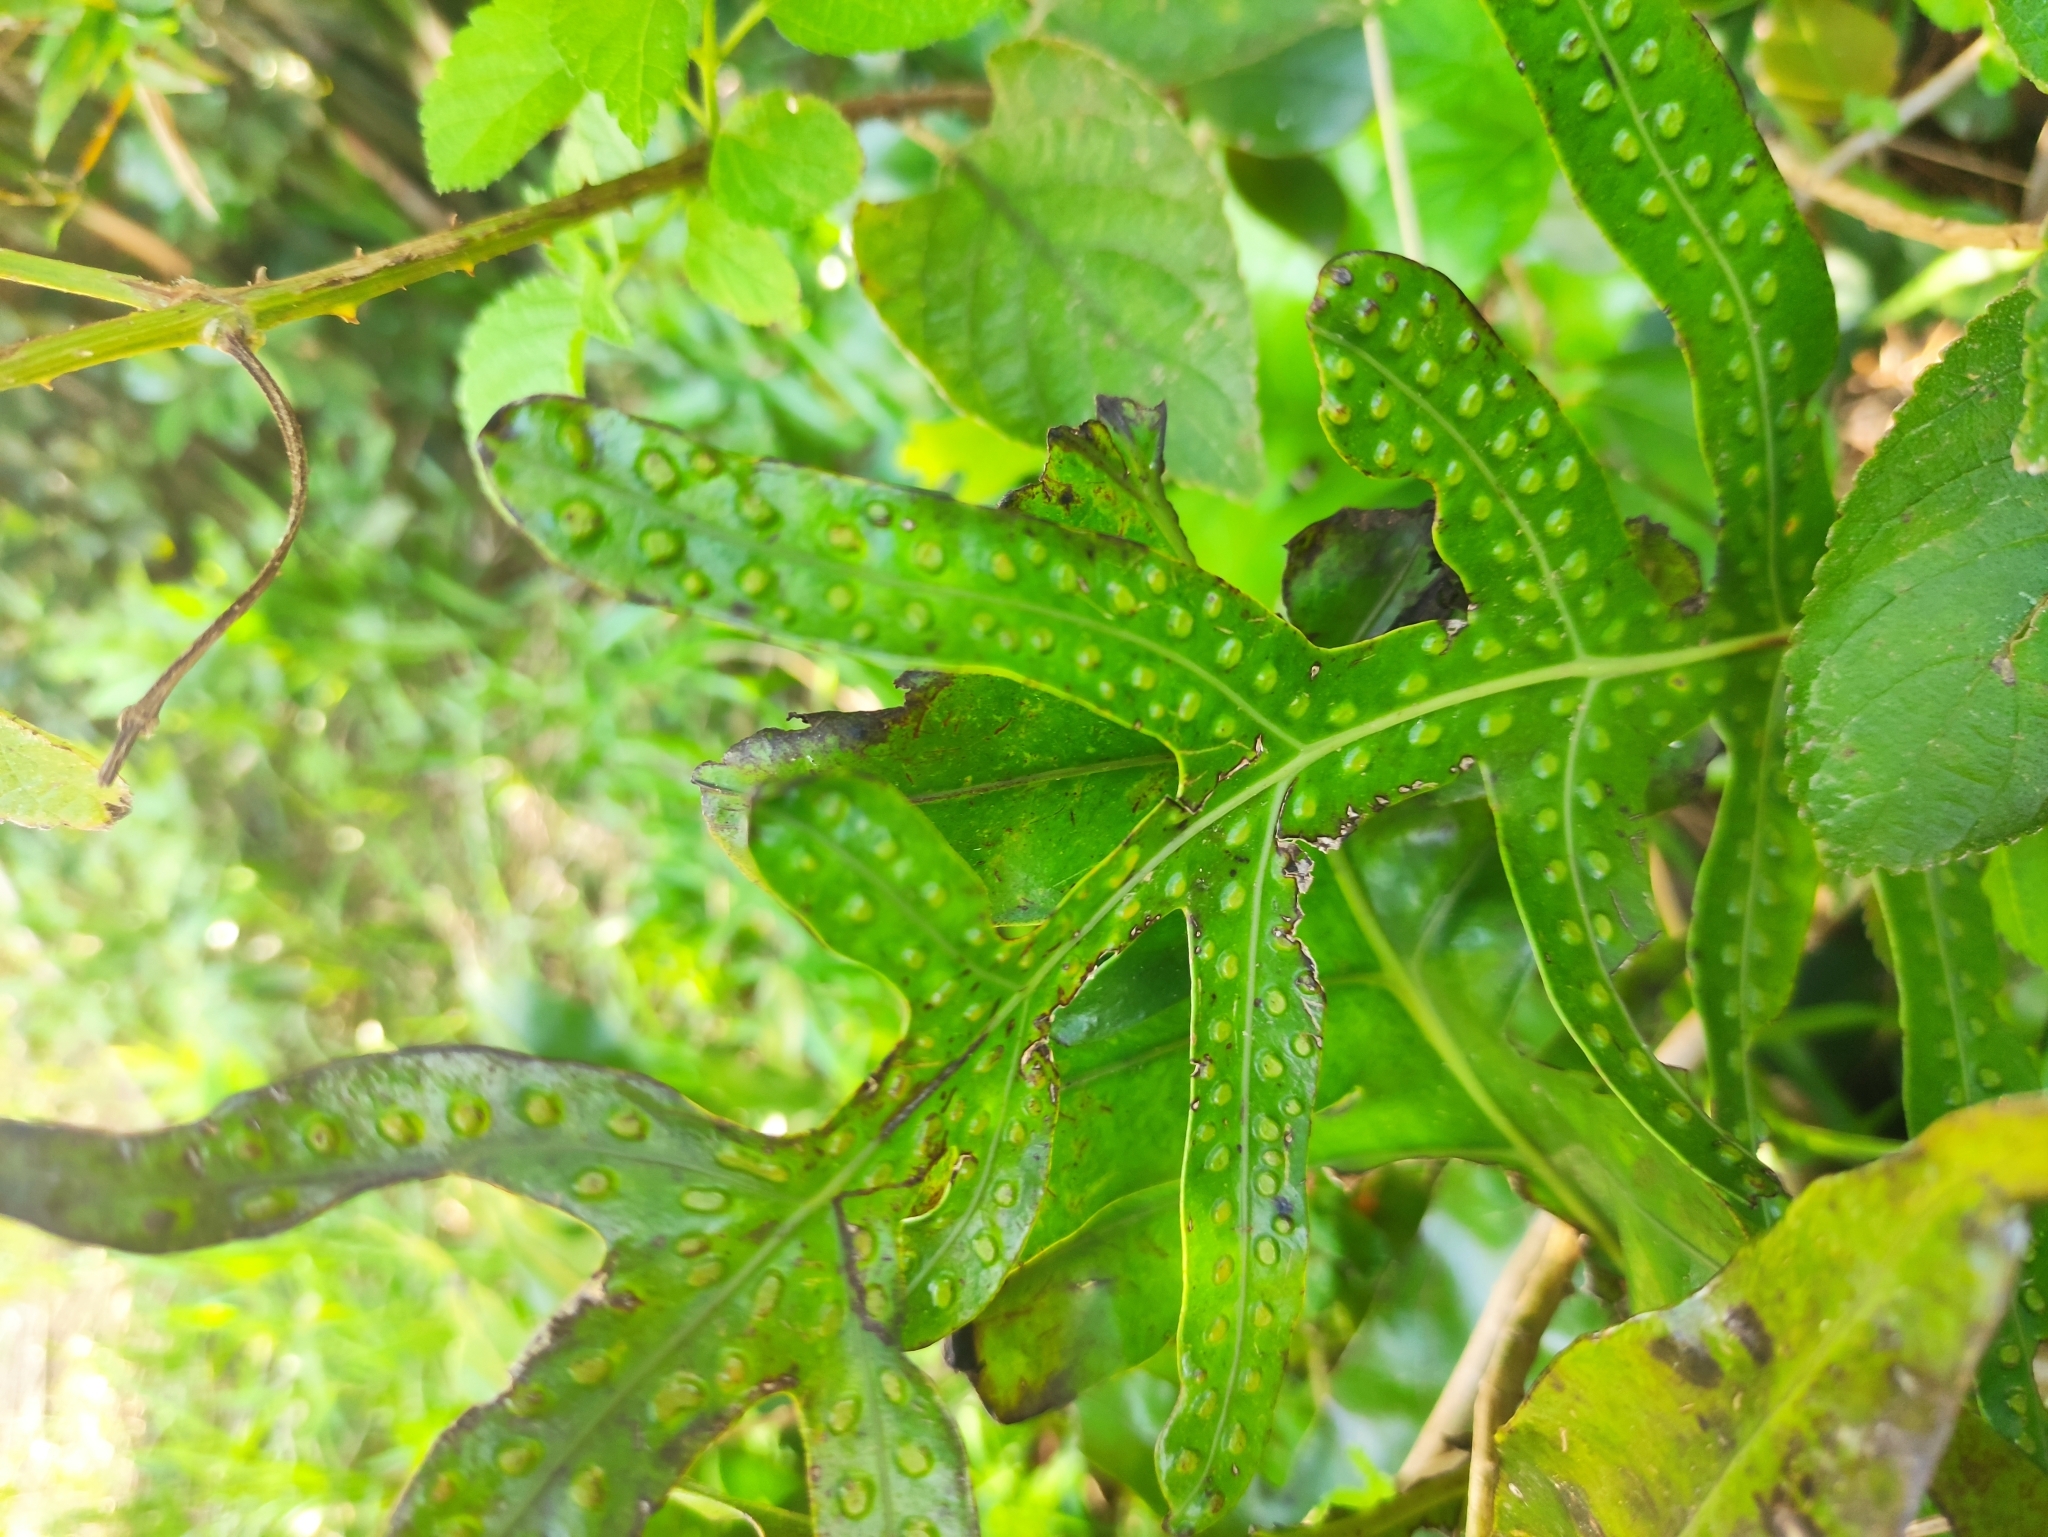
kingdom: Plantae
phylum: Tracheophyta
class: Polypodiopsida
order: Polypodiales
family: Polypodiaceae
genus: Microsorum
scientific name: Microsorum scolopendria
